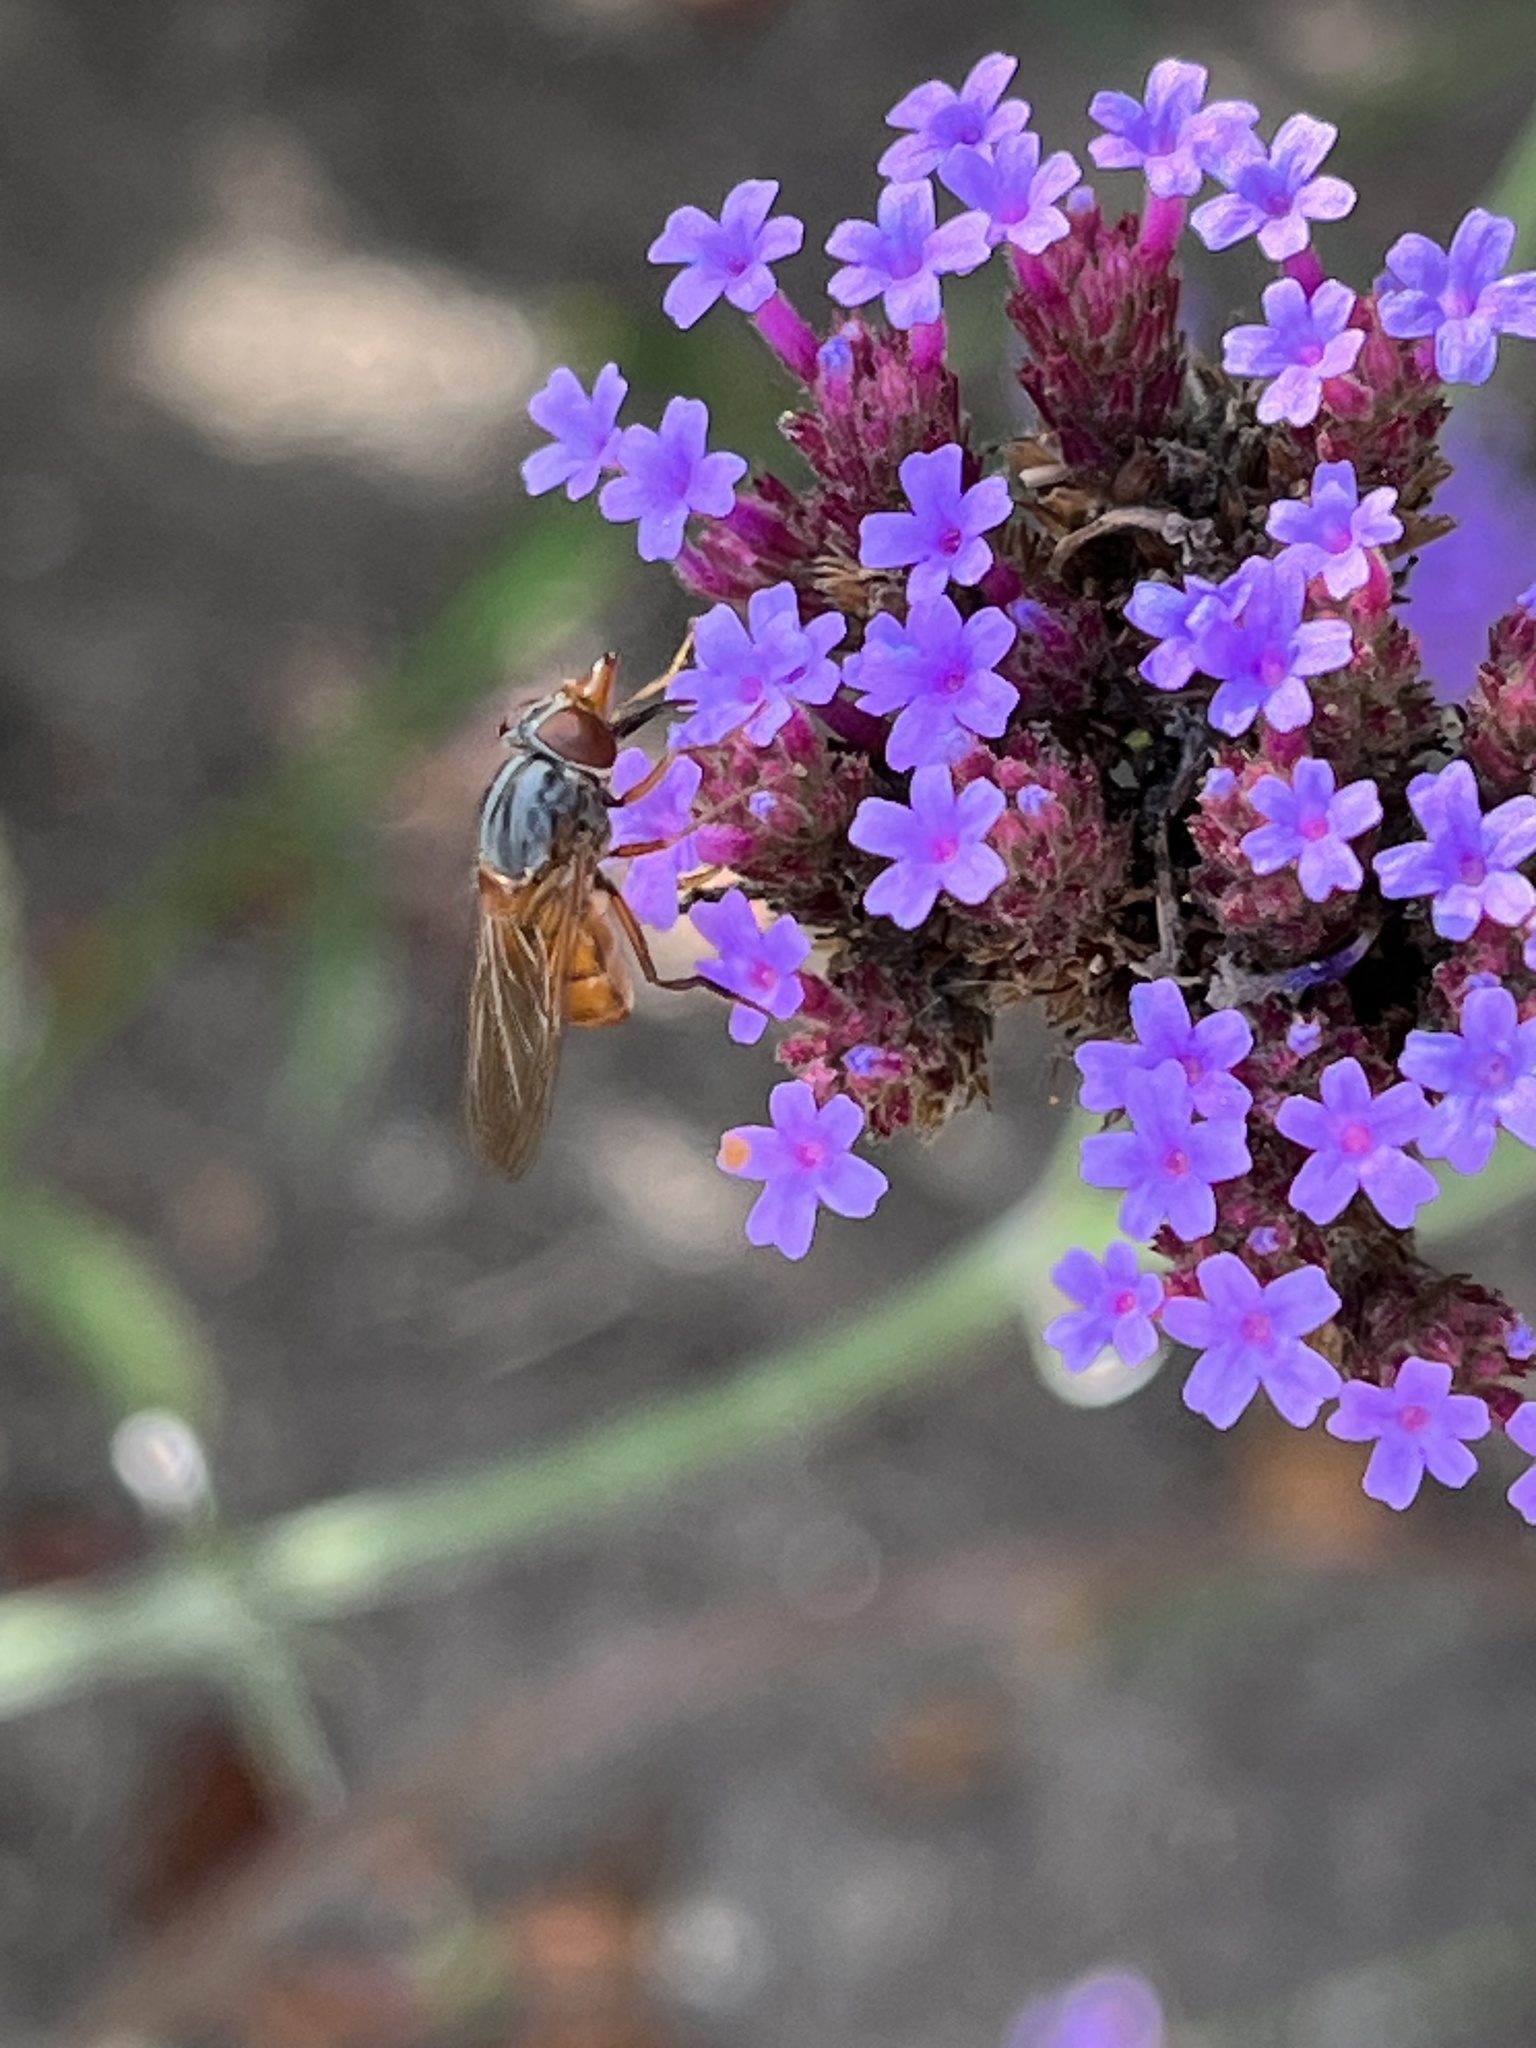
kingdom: Animalia
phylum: Arthropoda
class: Insecta
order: Diptera
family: Syrphidae
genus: Rhingia
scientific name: Rhingia campestris
